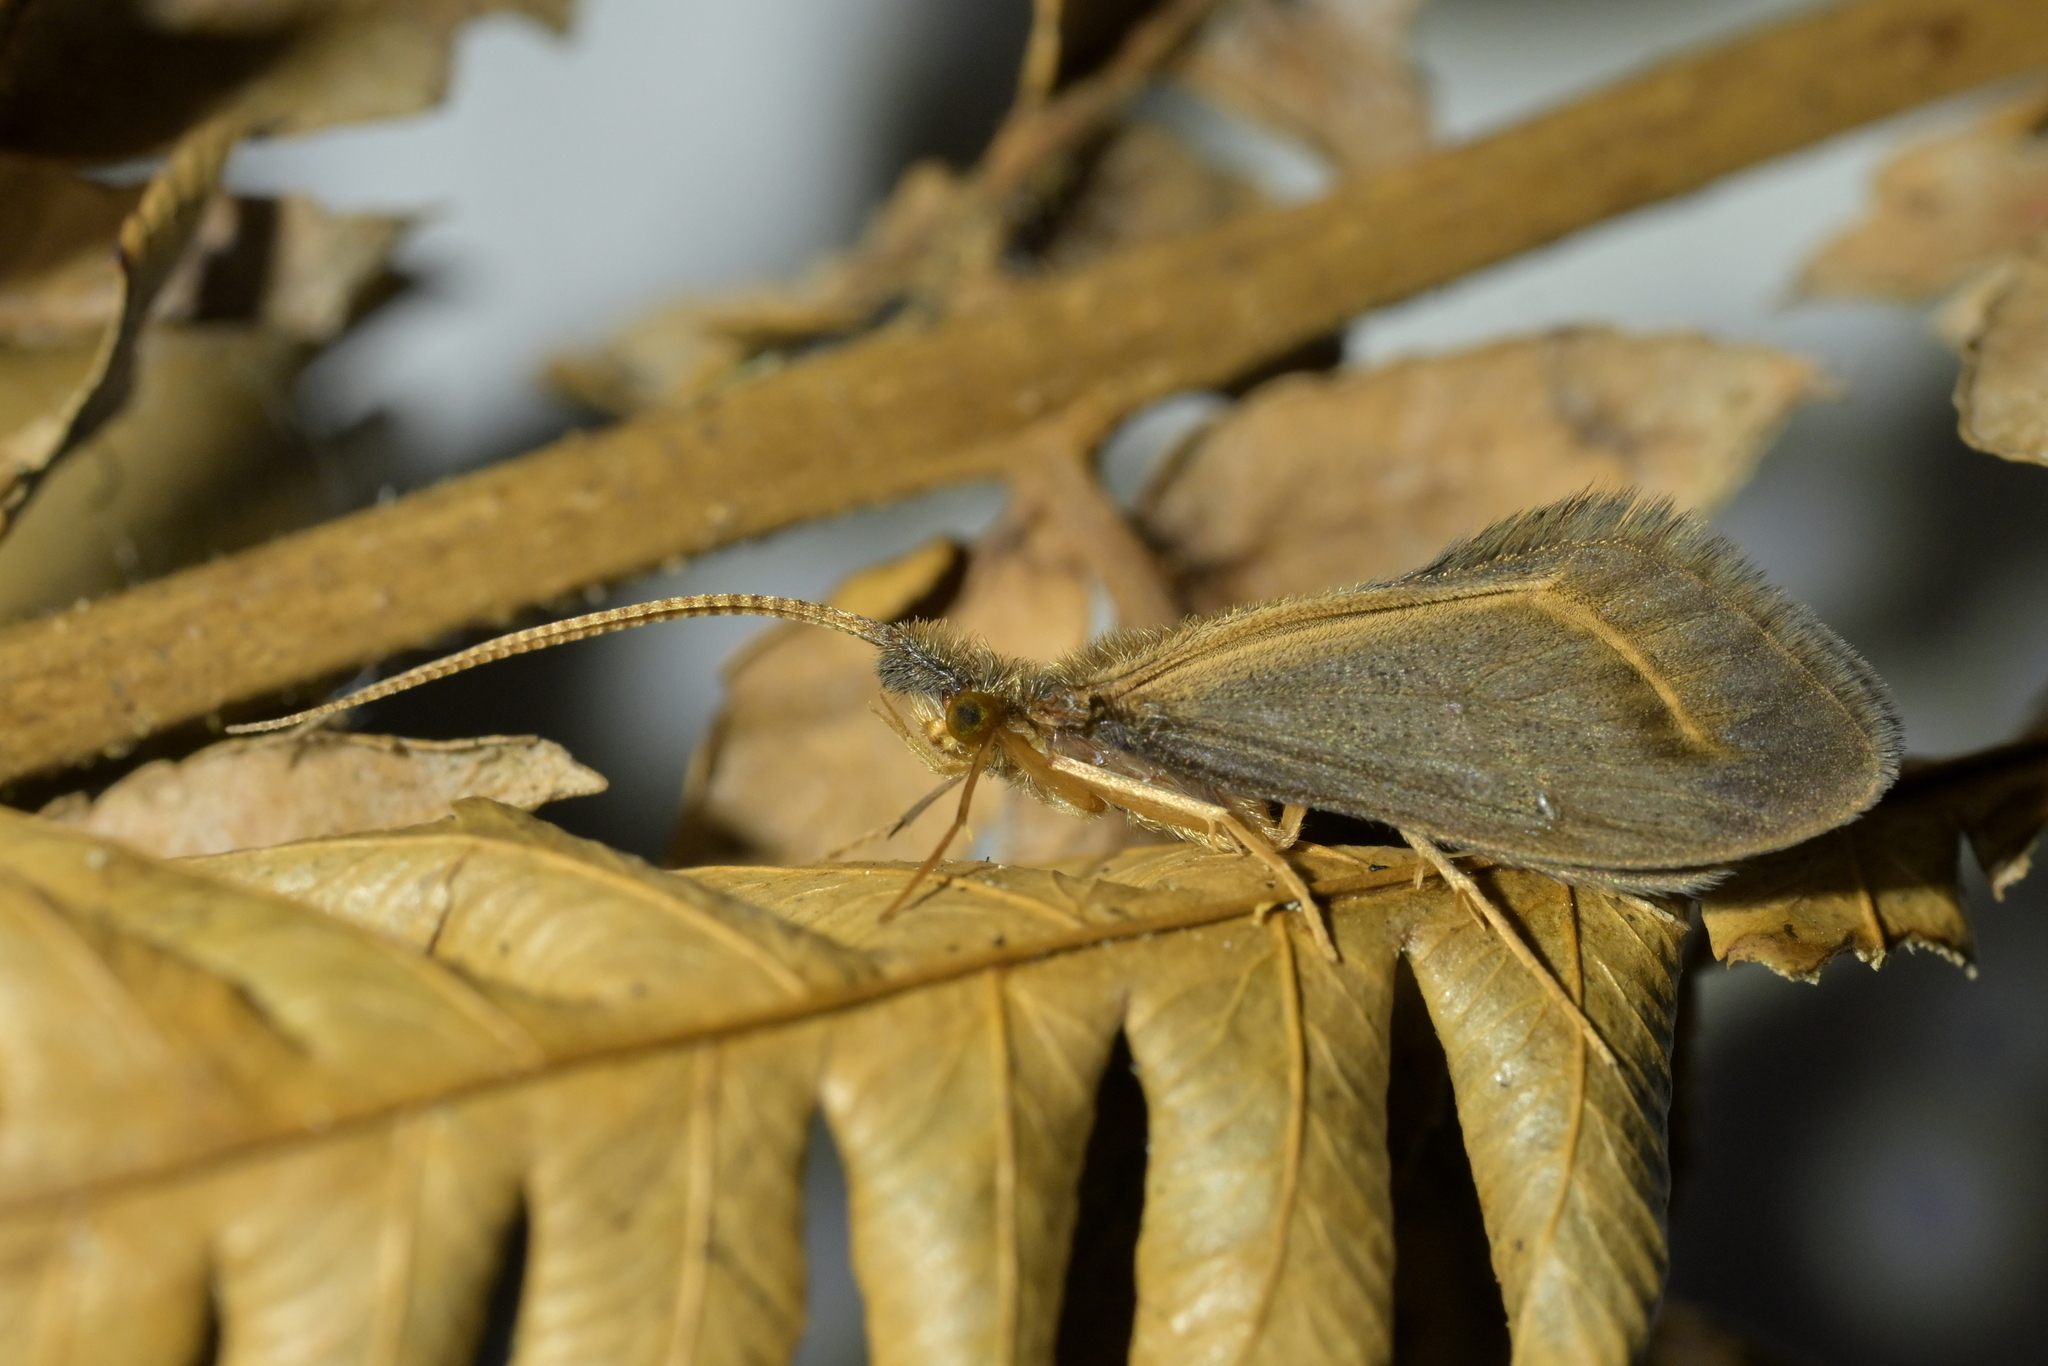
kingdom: Animalia
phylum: Arthropoda
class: Insecta
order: Trichoptera
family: Conoesucidae
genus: Olinga
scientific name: Olinga feredayi
